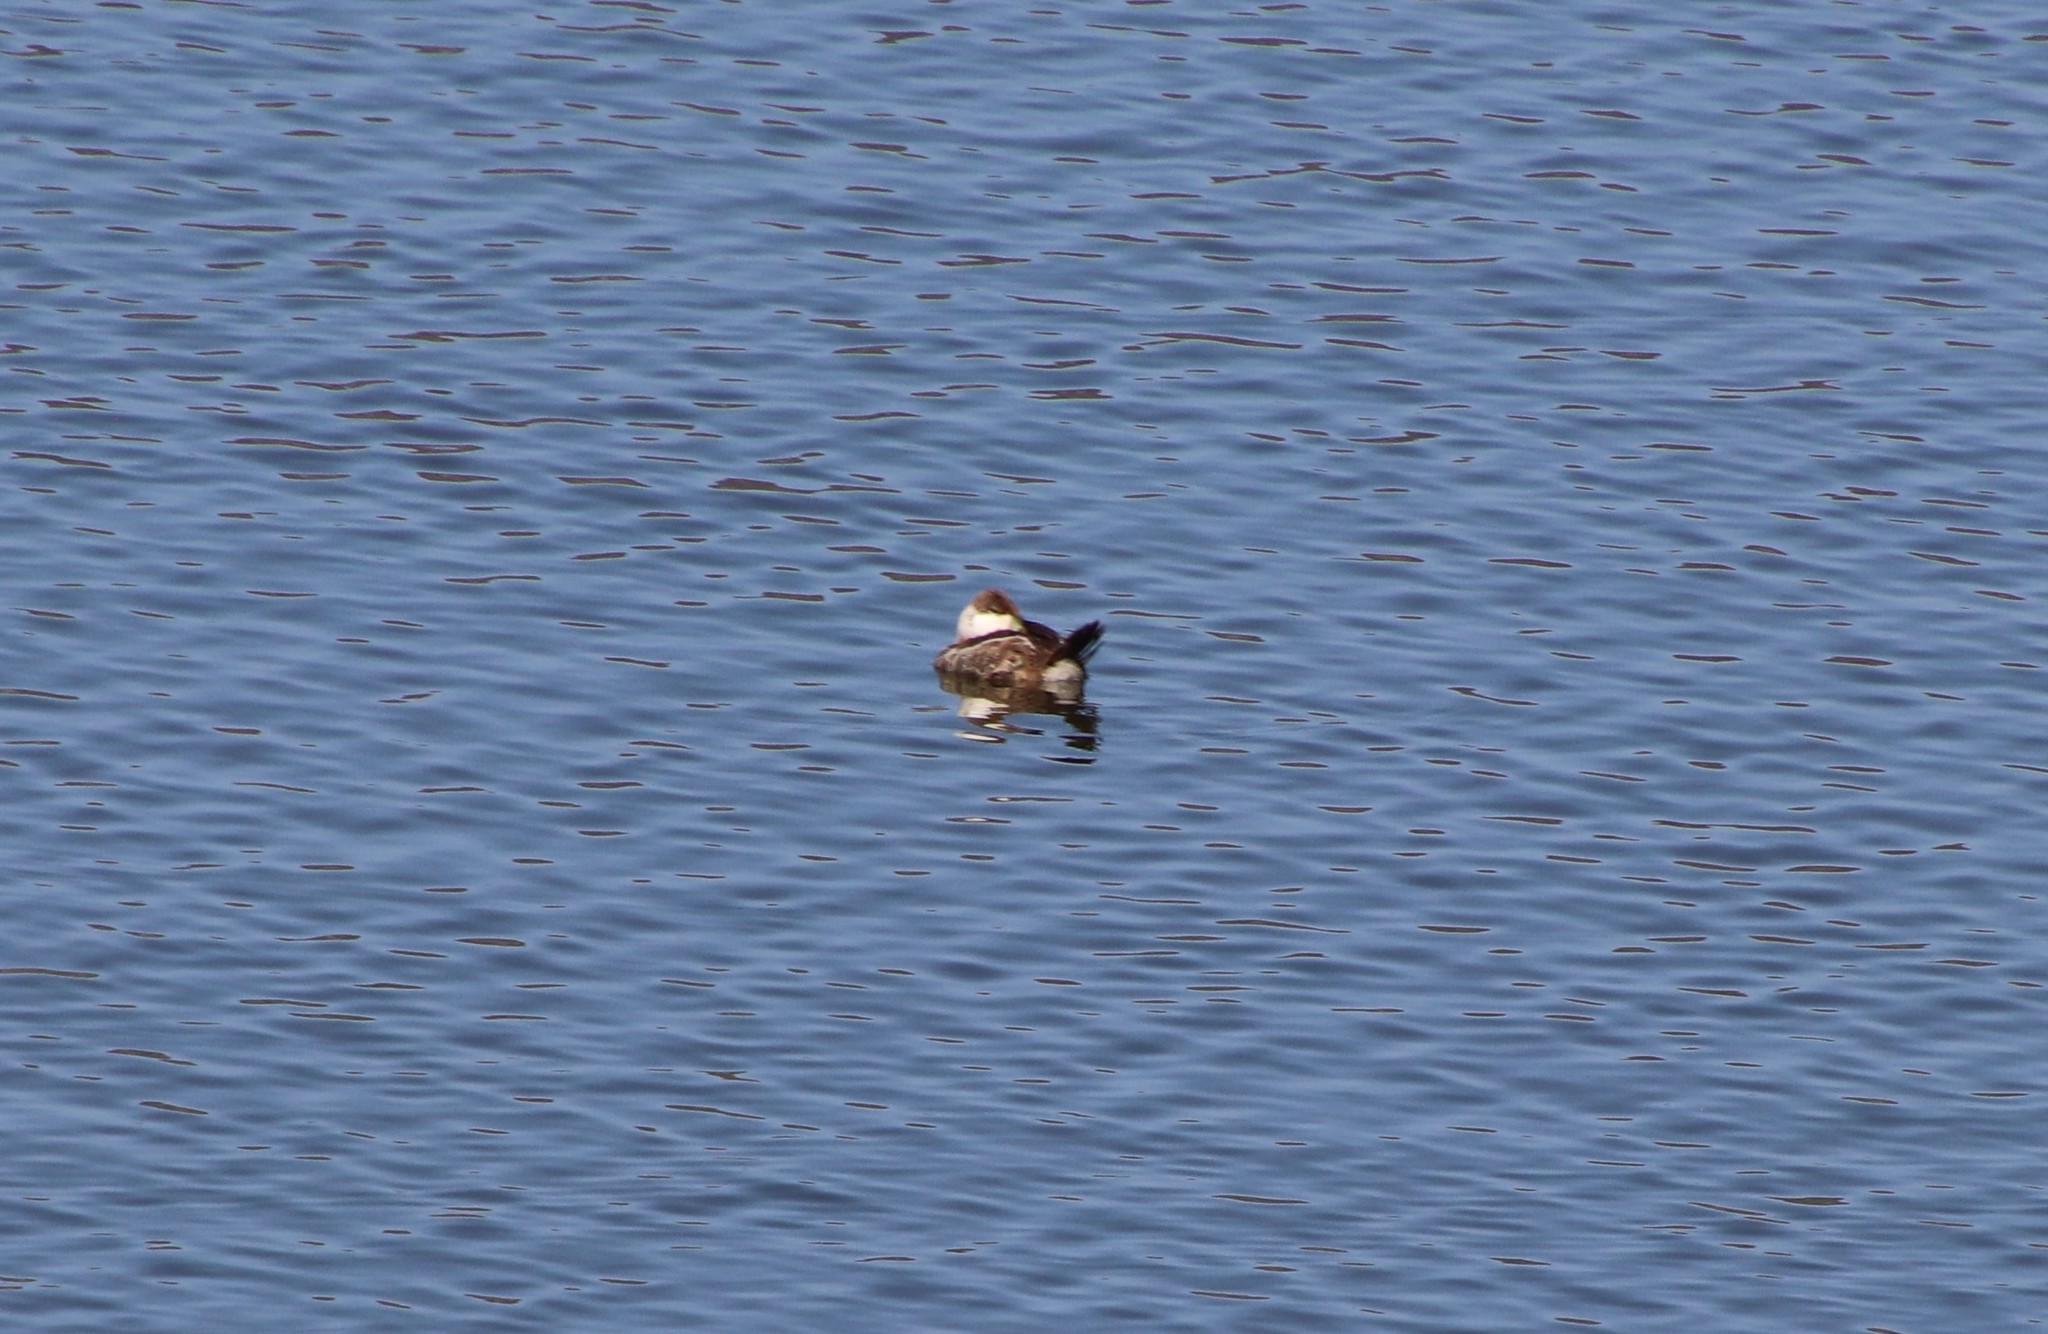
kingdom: Animalia
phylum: Chordata
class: Aves
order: Anseriformes
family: Anatidae
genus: Oxyura
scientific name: Oxyura jamaicensis
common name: Ruddy duck
